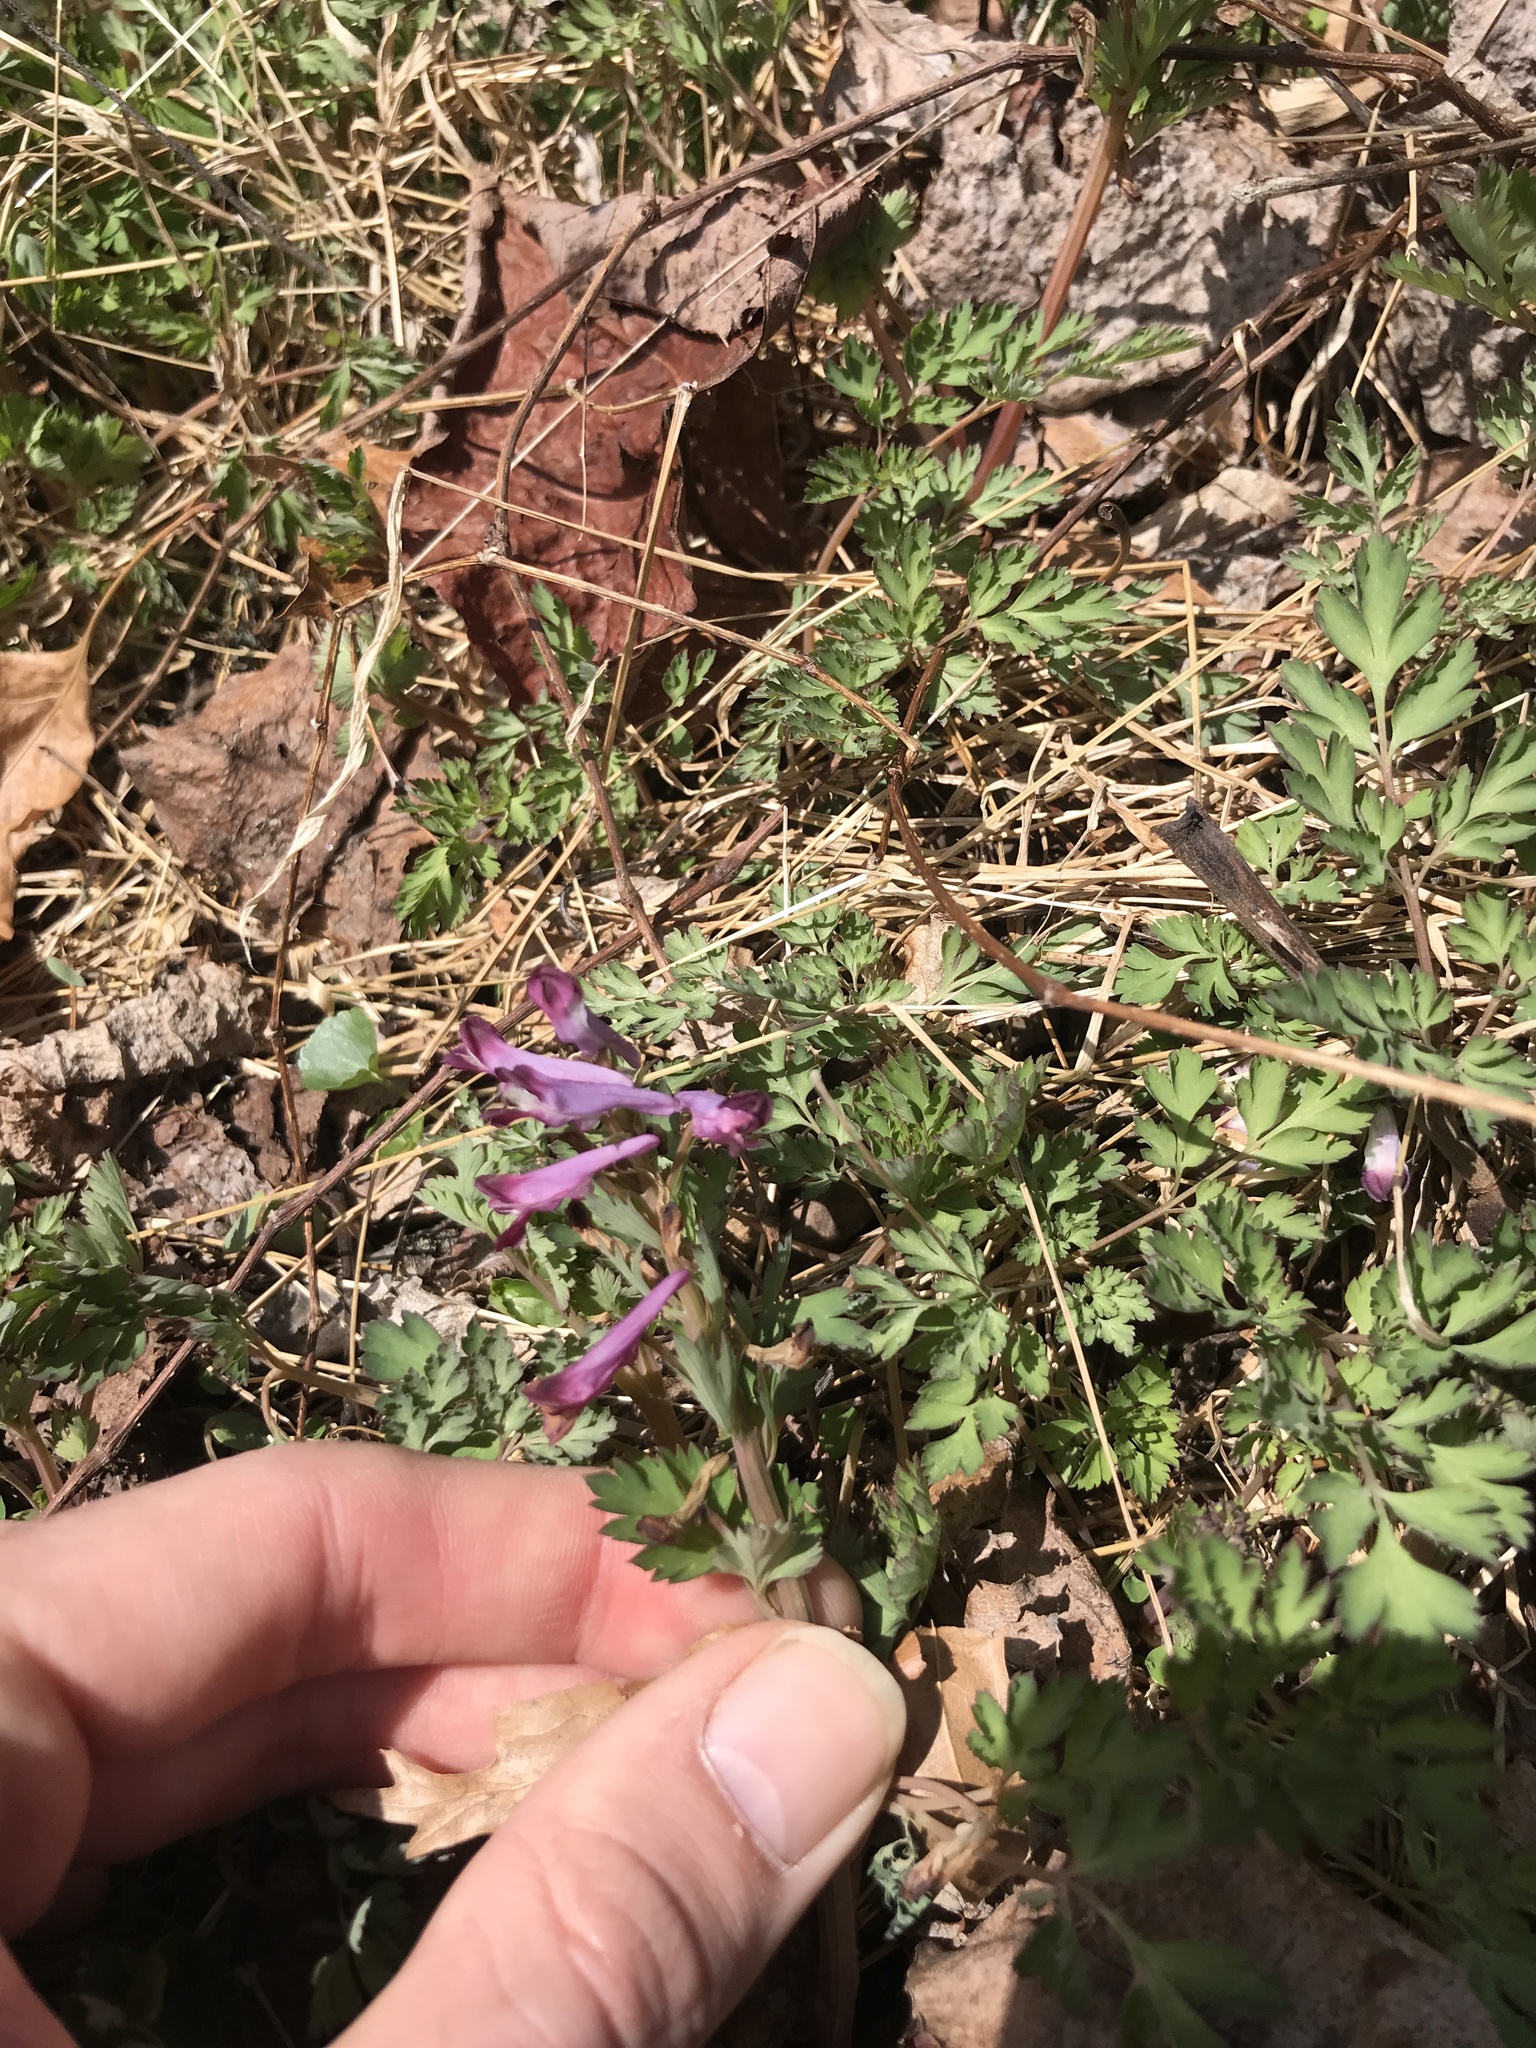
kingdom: Plantae
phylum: Tracheophyta
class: Magnoliopsida
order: Ranunculales
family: Papaveraceae
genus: Corydalis
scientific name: Corydalis incisa
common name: Incised fumewort
